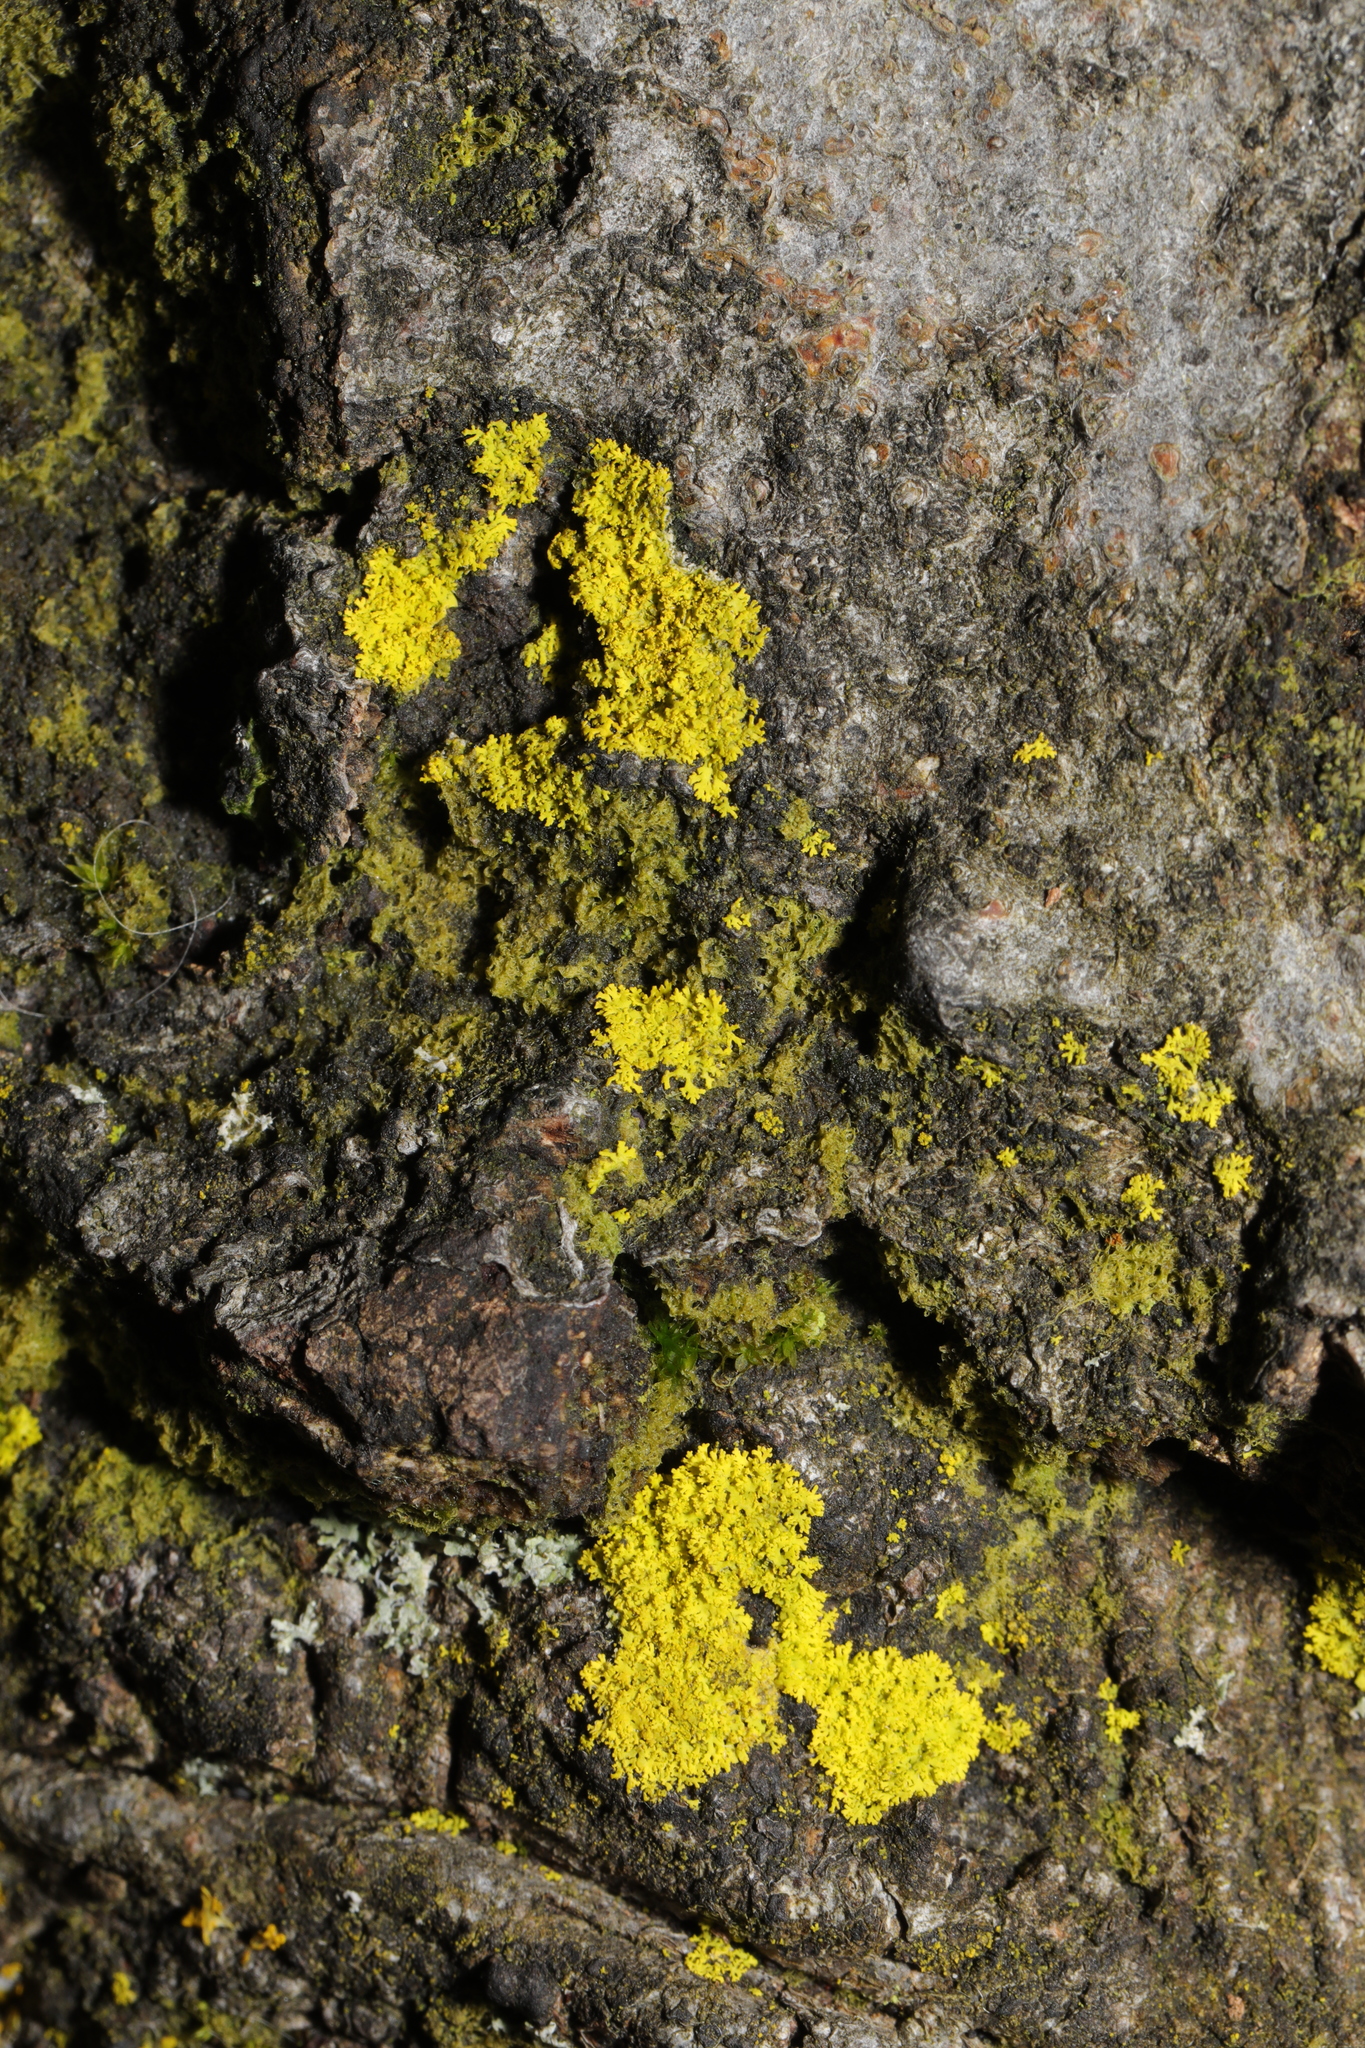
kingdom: Fungi
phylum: Ascomycota
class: Candelariomycetes
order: Candelariales
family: Candelariaceae
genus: Candelaria
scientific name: Candelaria concolor
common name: Candleflame lichen
